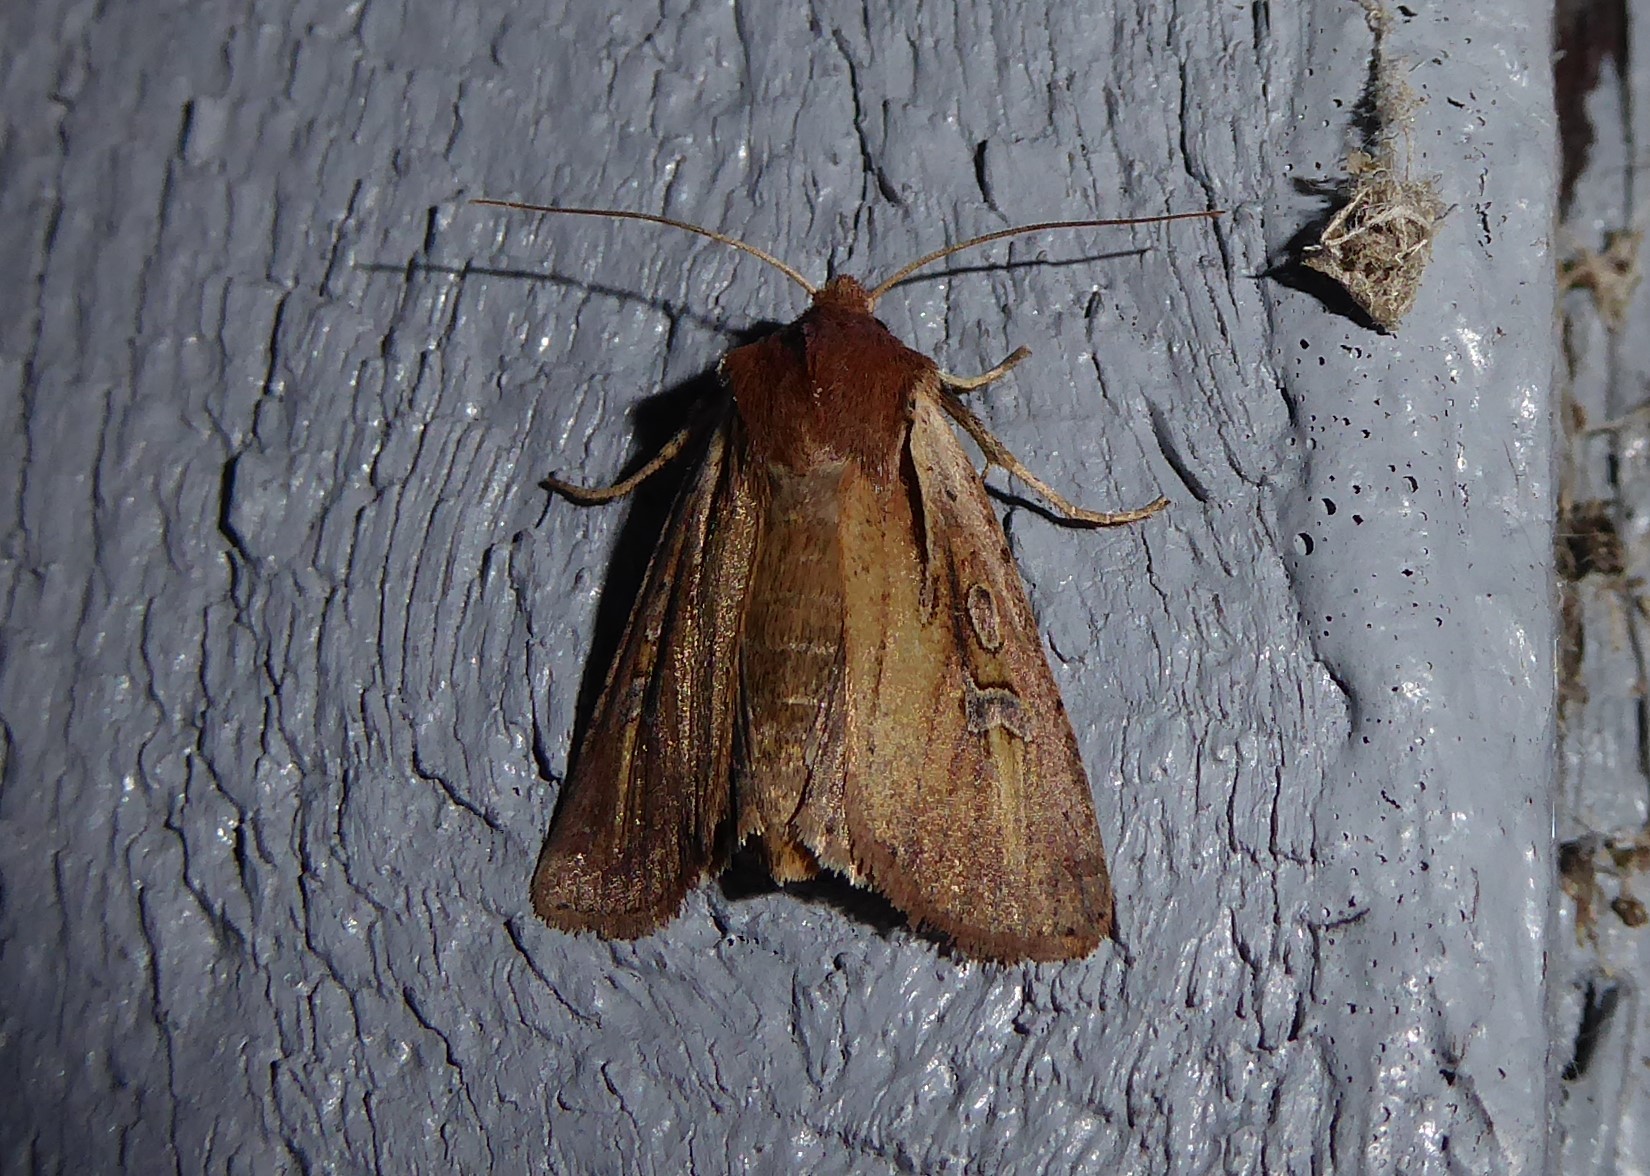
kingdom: Animalia
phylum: Arthropoda
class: Insecta
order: Lepidoptera
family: Noctuidae
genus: Ichneutica
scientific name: Ichneutica atristriga
